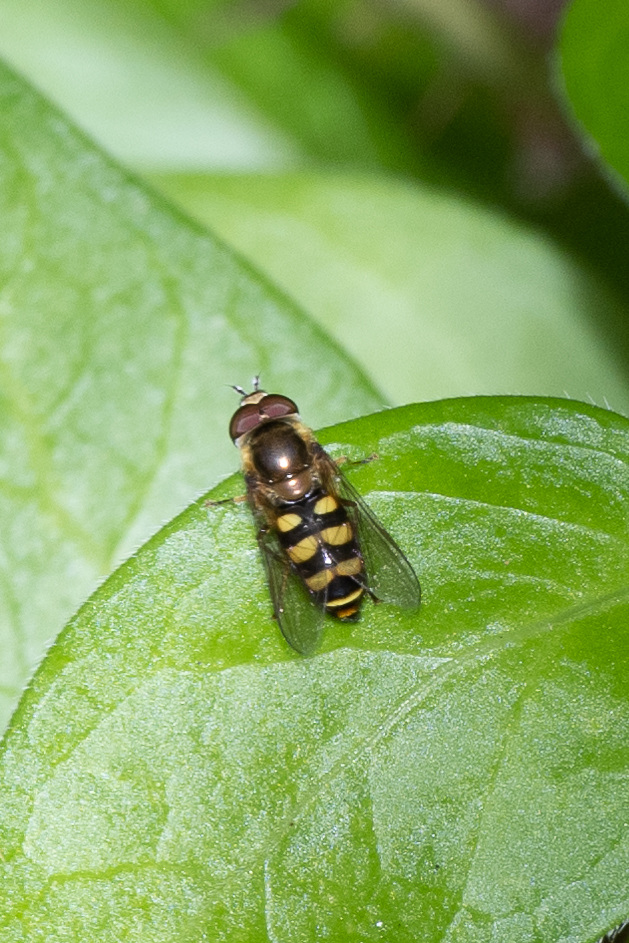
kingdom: Animalia
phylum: Arthropoda
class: Insecta
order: Diptera
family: Syrphidae
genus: Eupeodes
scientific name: Eupeodes fumipennis
